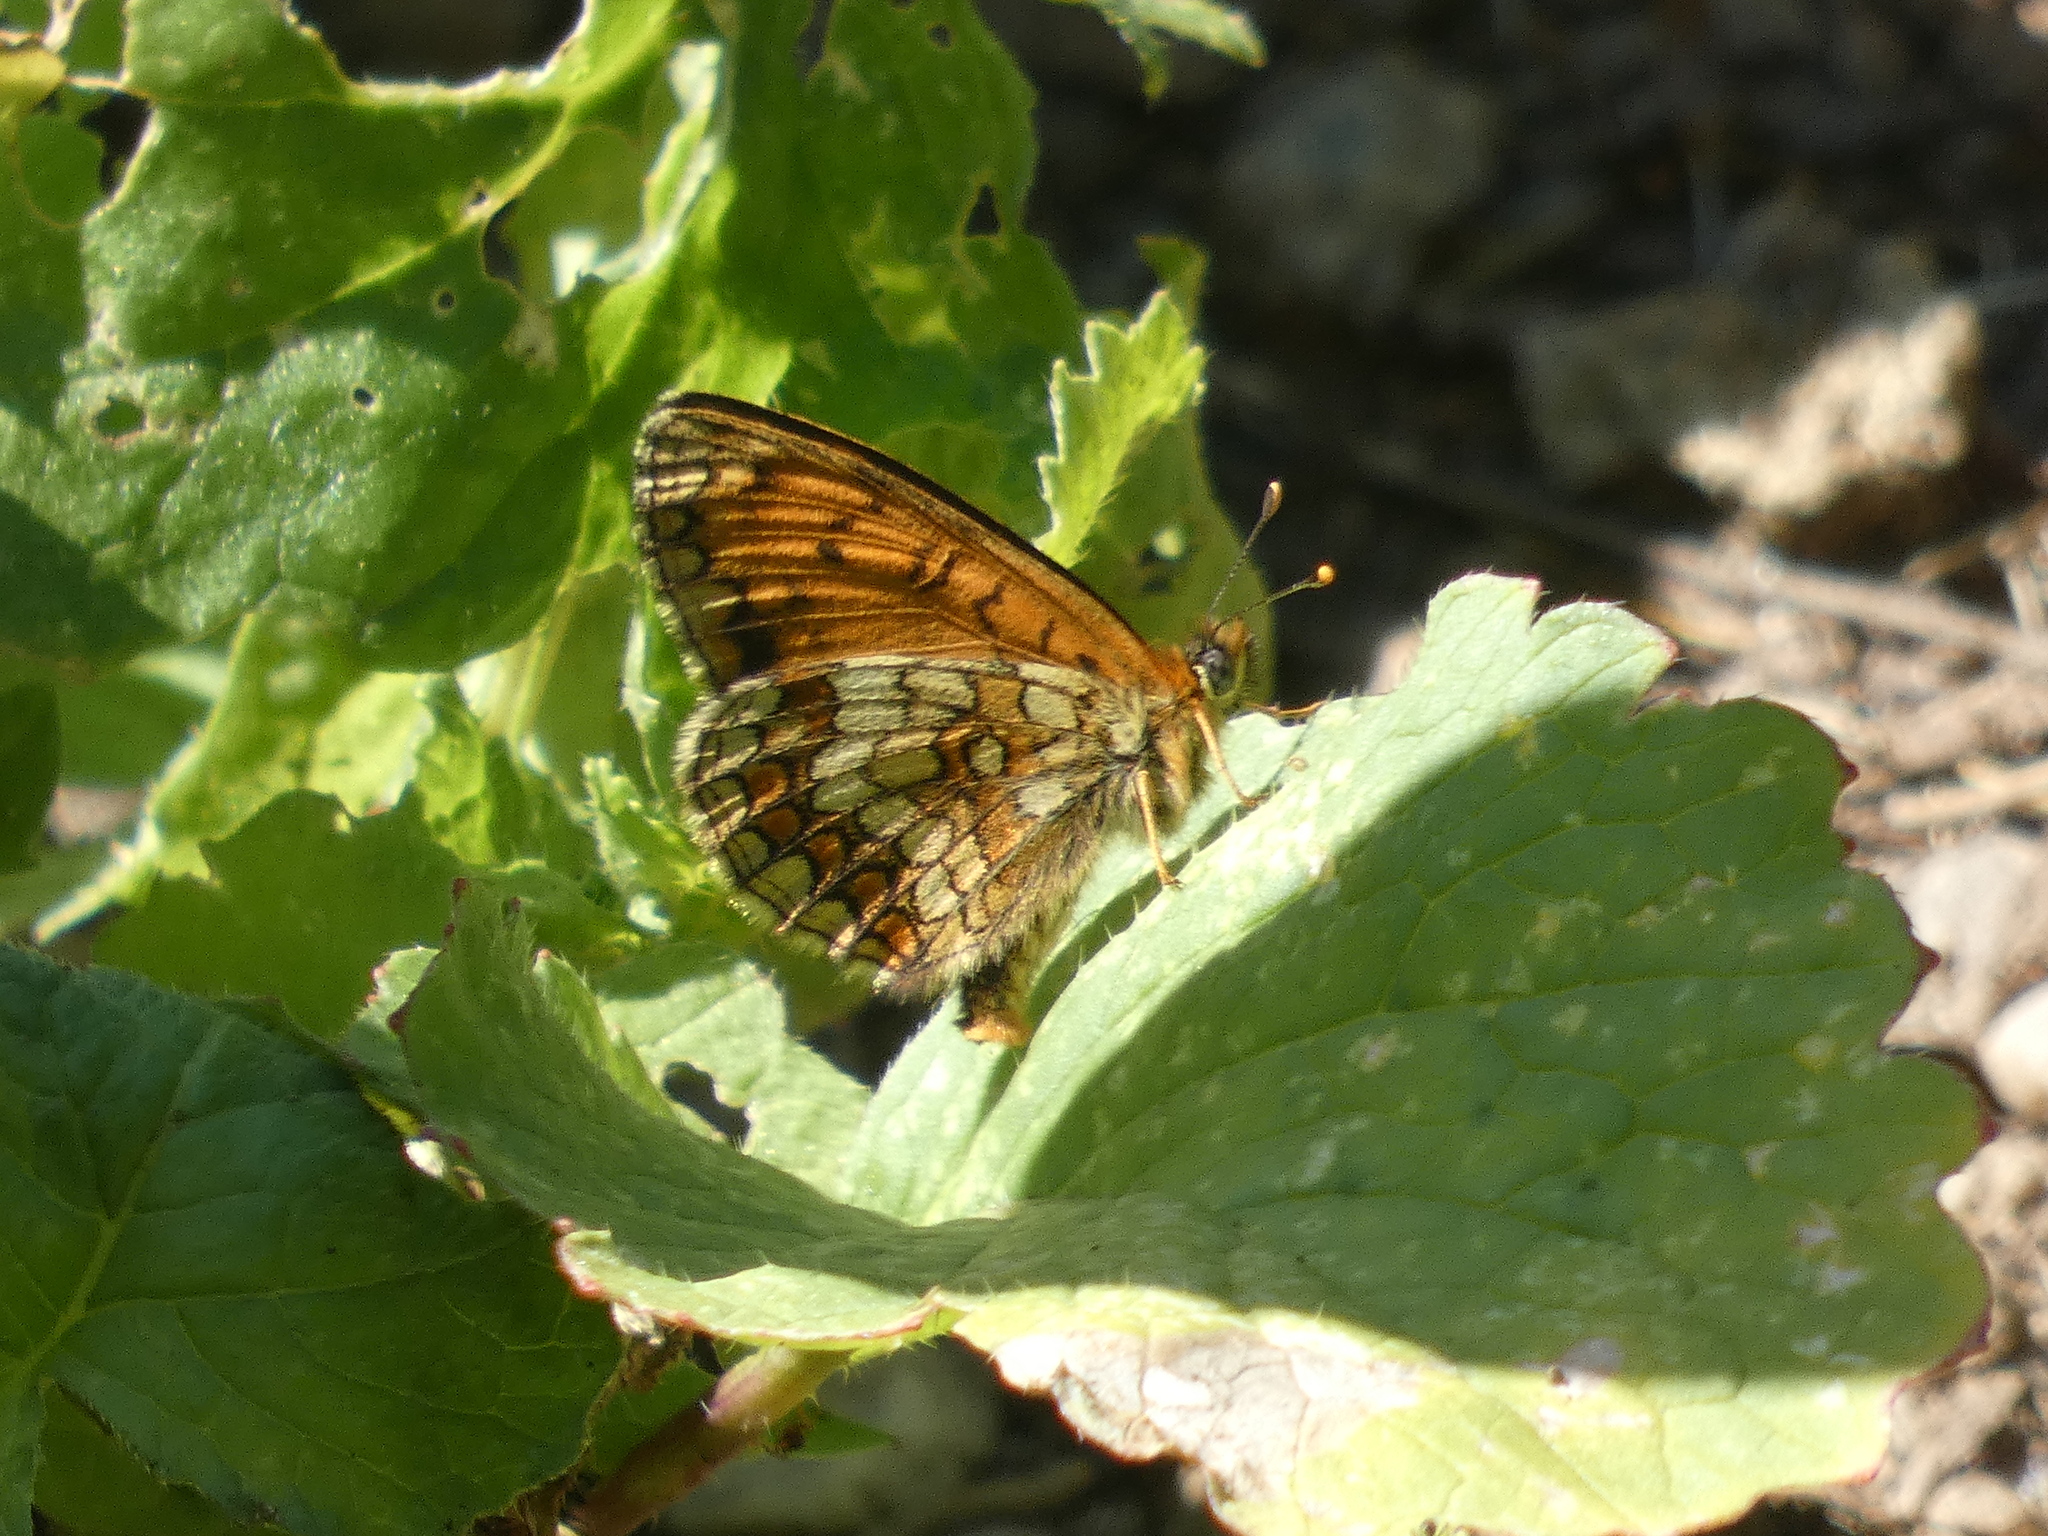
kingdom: Animalia
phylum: Arthropoda
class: Insecta
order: Lepidoptera
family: Nymphalidae
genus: Mellicta
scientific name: Mellicta athalia
